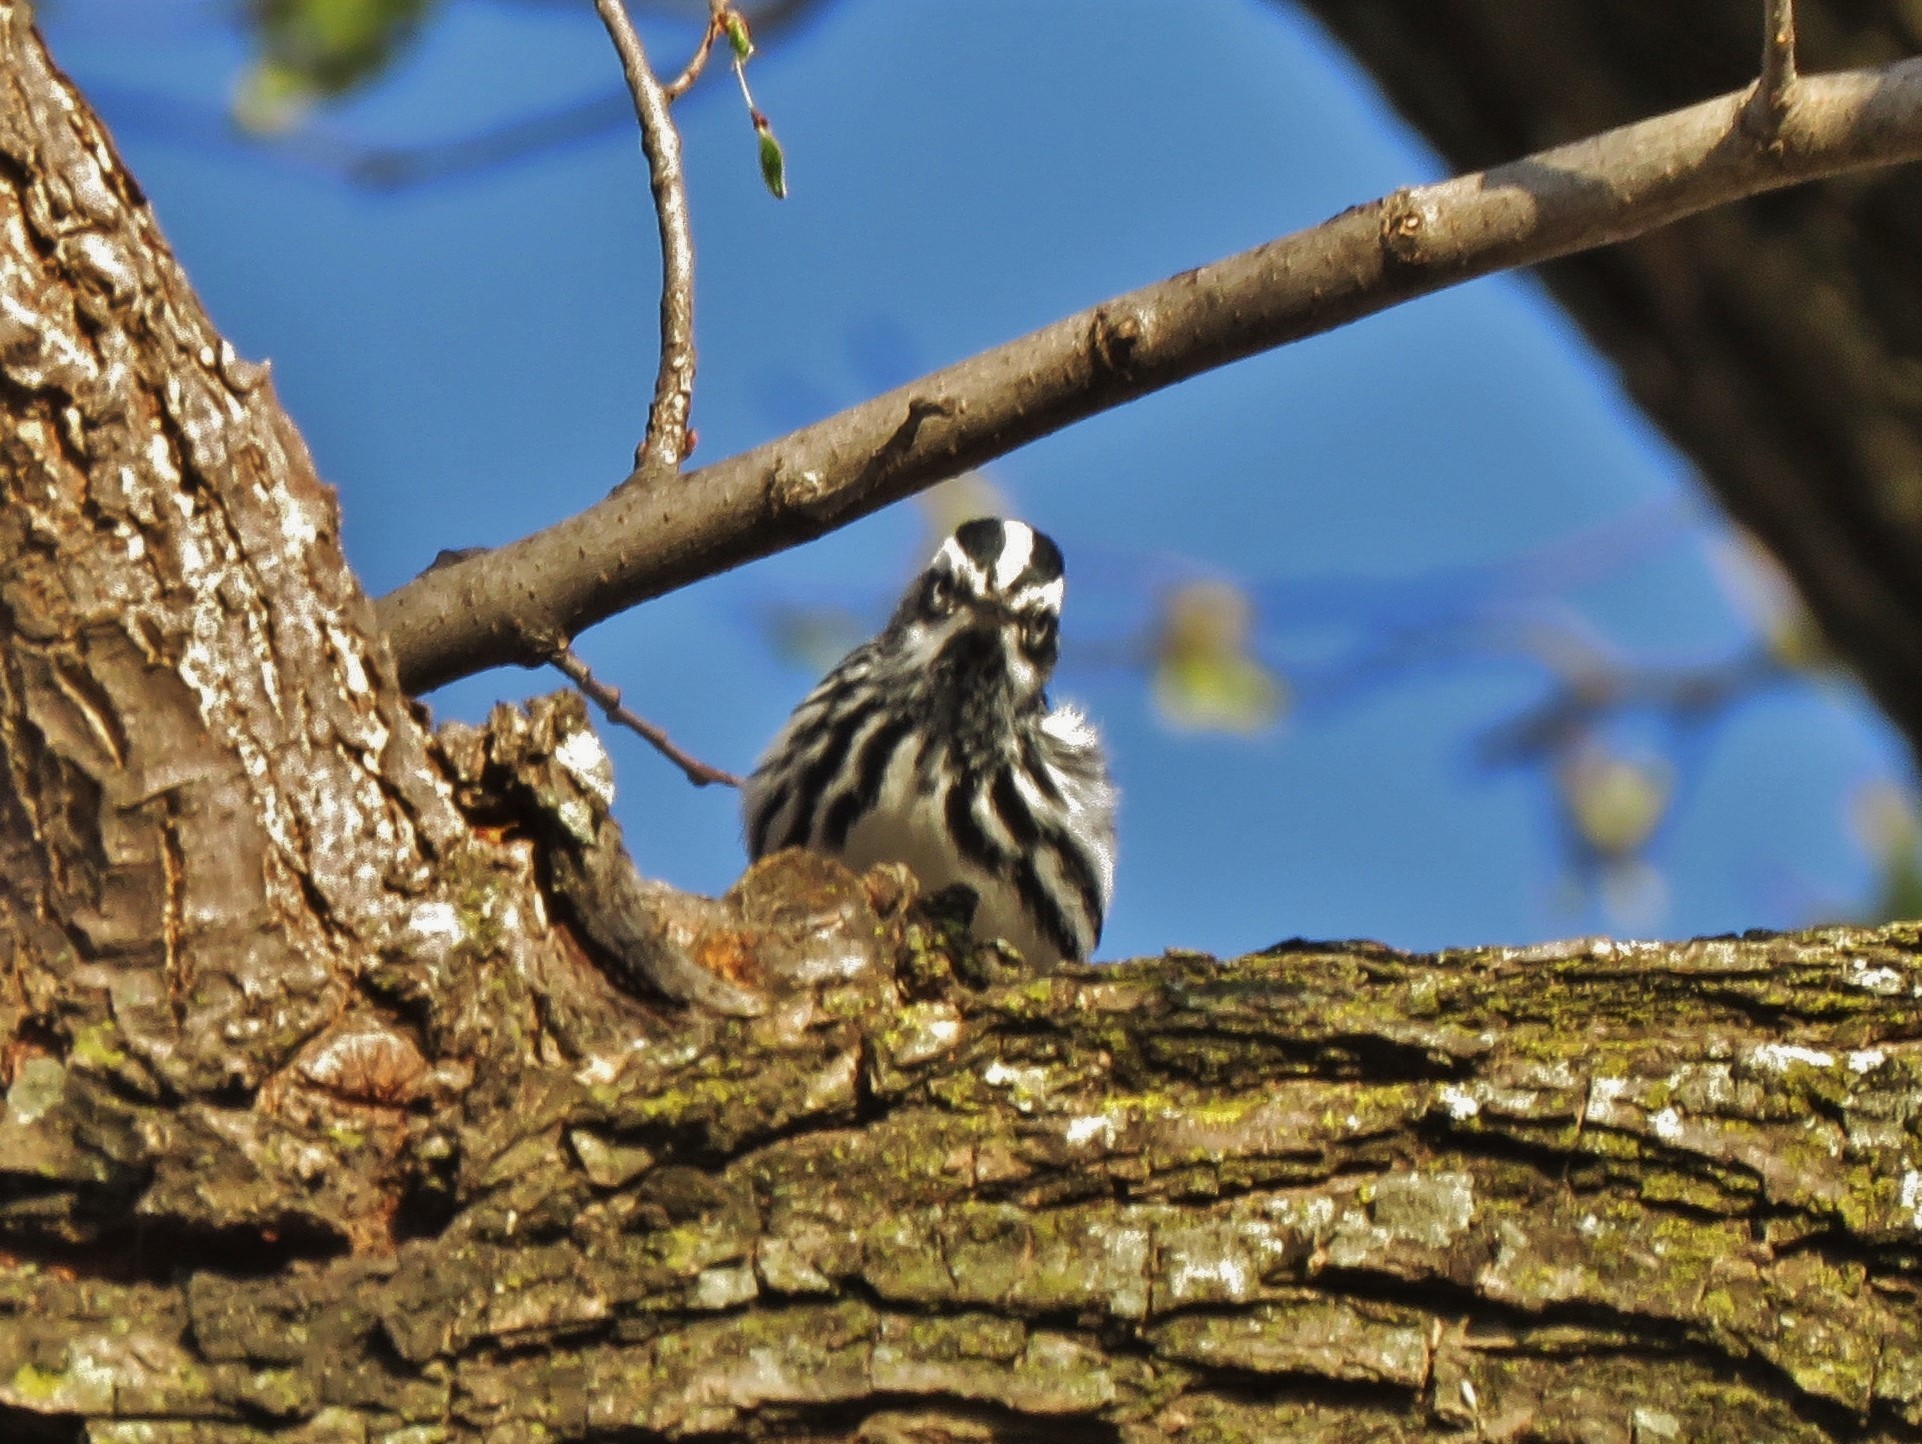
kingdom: Animalia
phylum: Chordata
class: Aves
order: Passeriformes
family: Parulidae
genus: Mniotilta
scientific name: Mniotilta varia
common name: Black-and-white warbler
